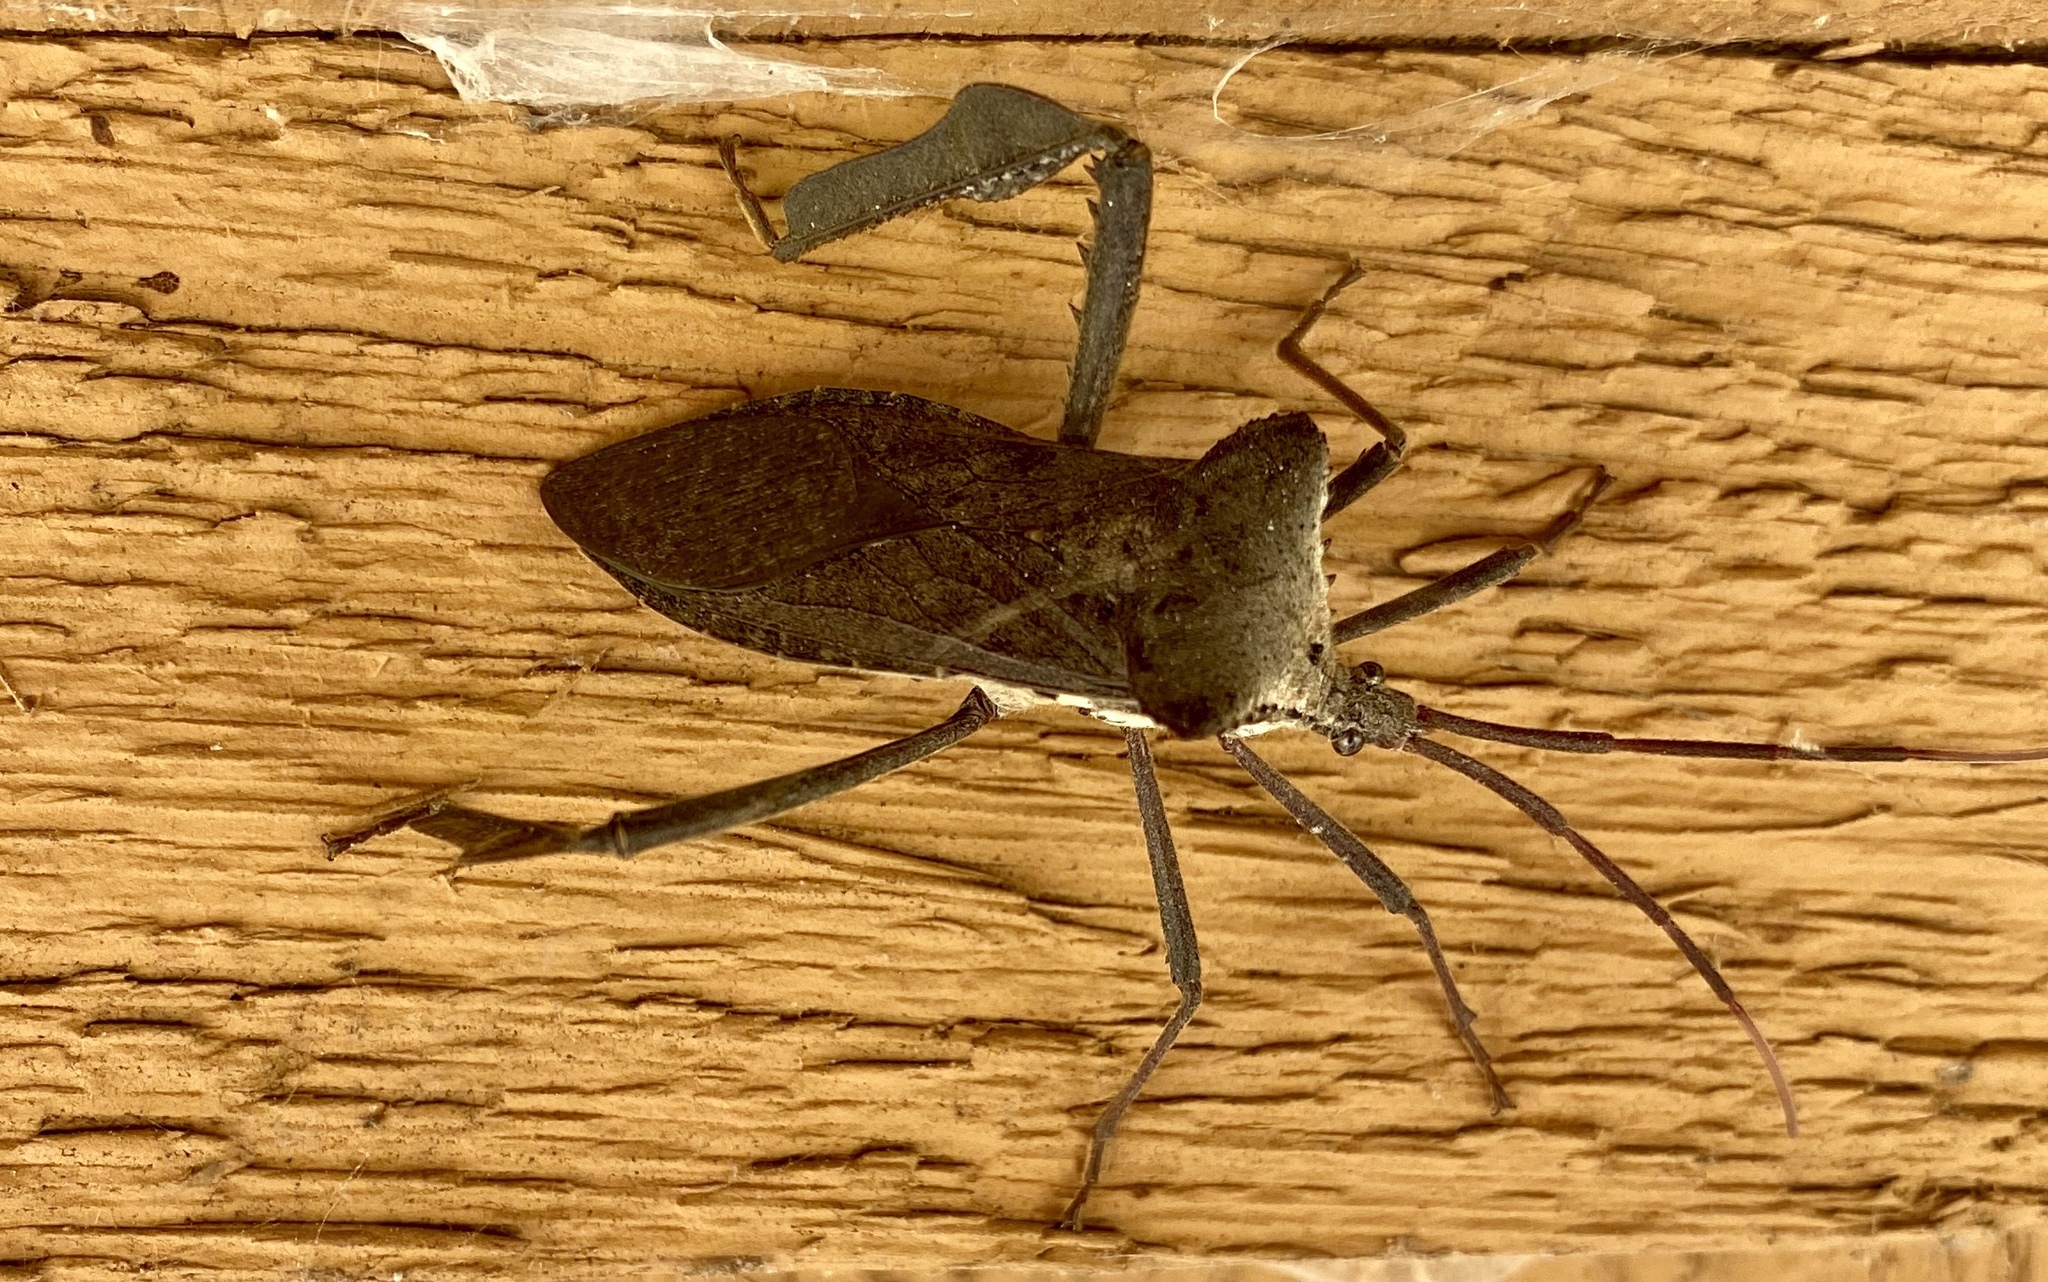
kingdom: Animalia
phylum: Arthropoda
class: Insecta
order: Hemiptera
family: Coreidae
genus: Acanthocephala
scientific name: Acanthocephala declivis
